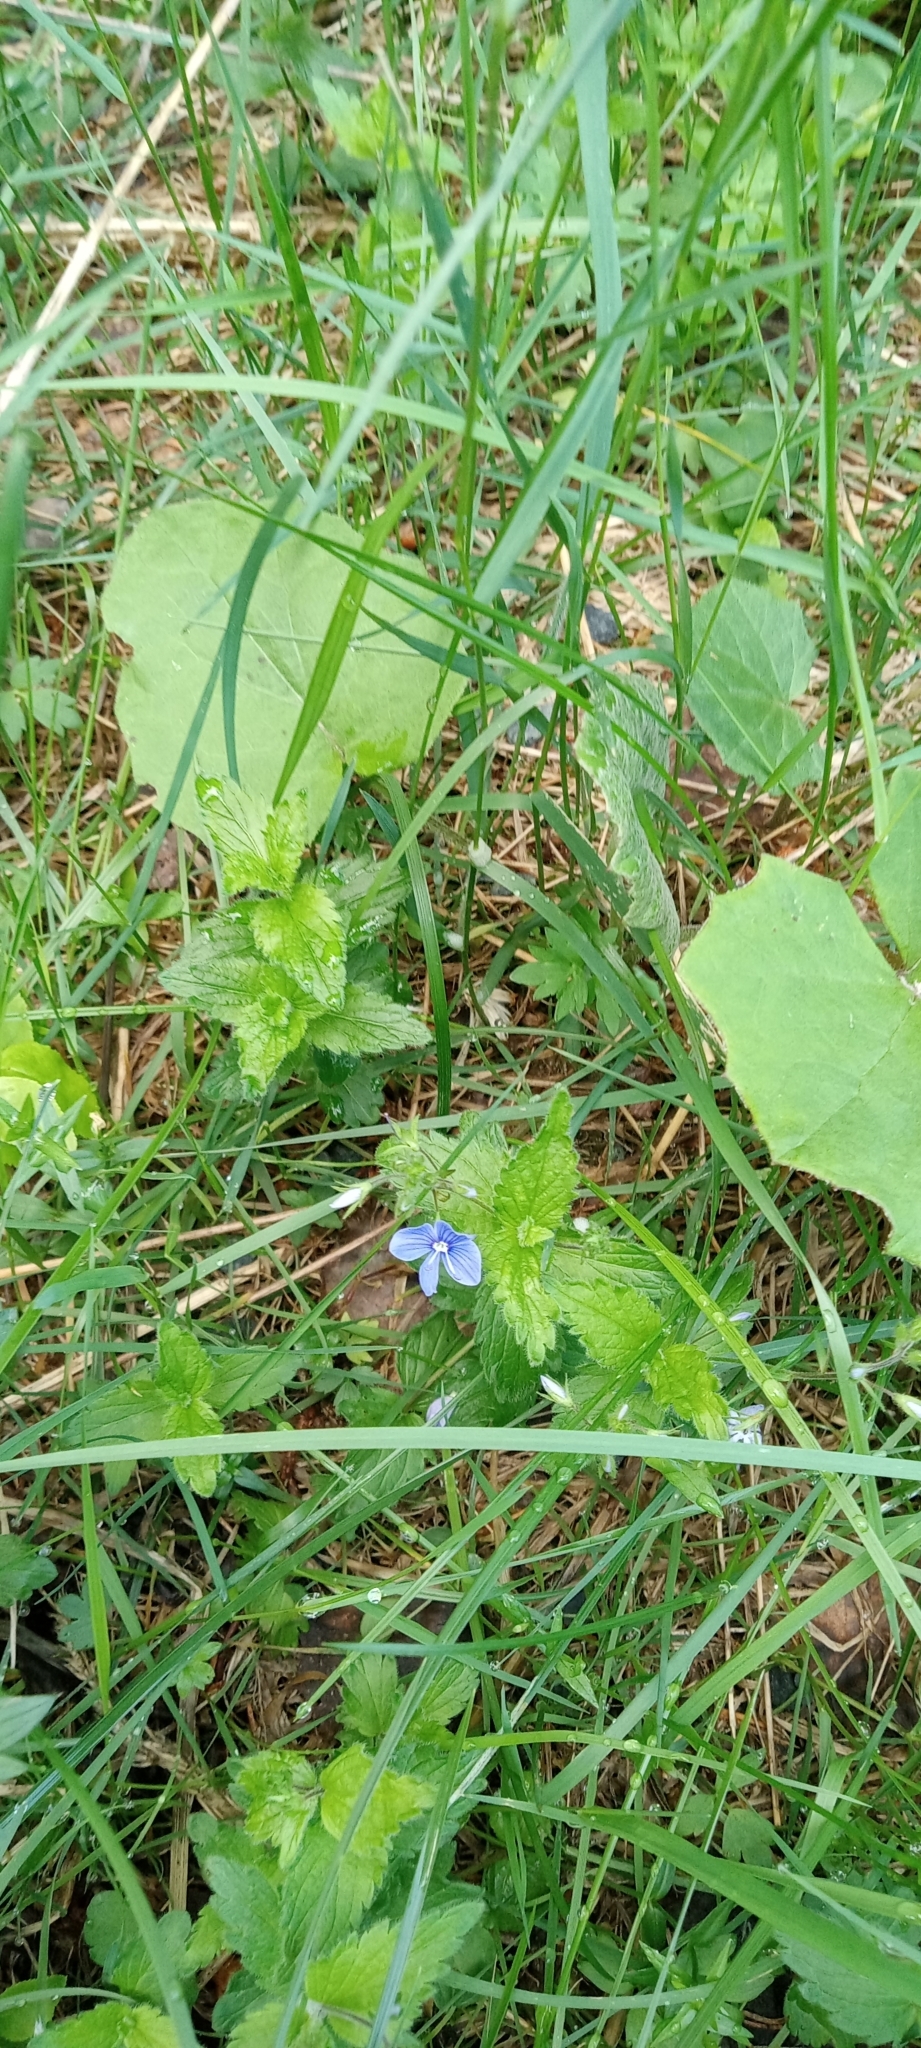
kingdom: Plantae
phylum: Tracheophyta
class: Magnoliopsida
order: Lamiales
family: Plantaginaceae
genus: Veronica
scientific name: Veronica chamaedrys
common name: Germander speedwell
